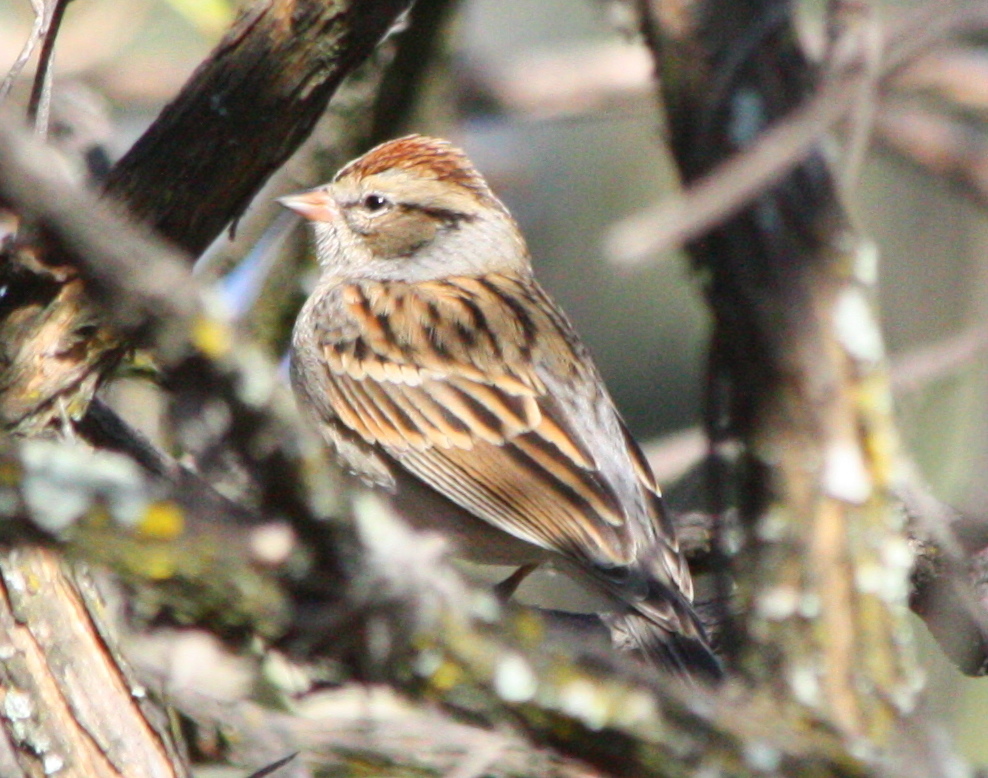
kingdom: Animalia
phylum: Chordata
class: Aves
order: Passeriformes
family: Passerellidae
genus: Spizella
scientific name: Spizella passerina
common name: Chipping sparrow
